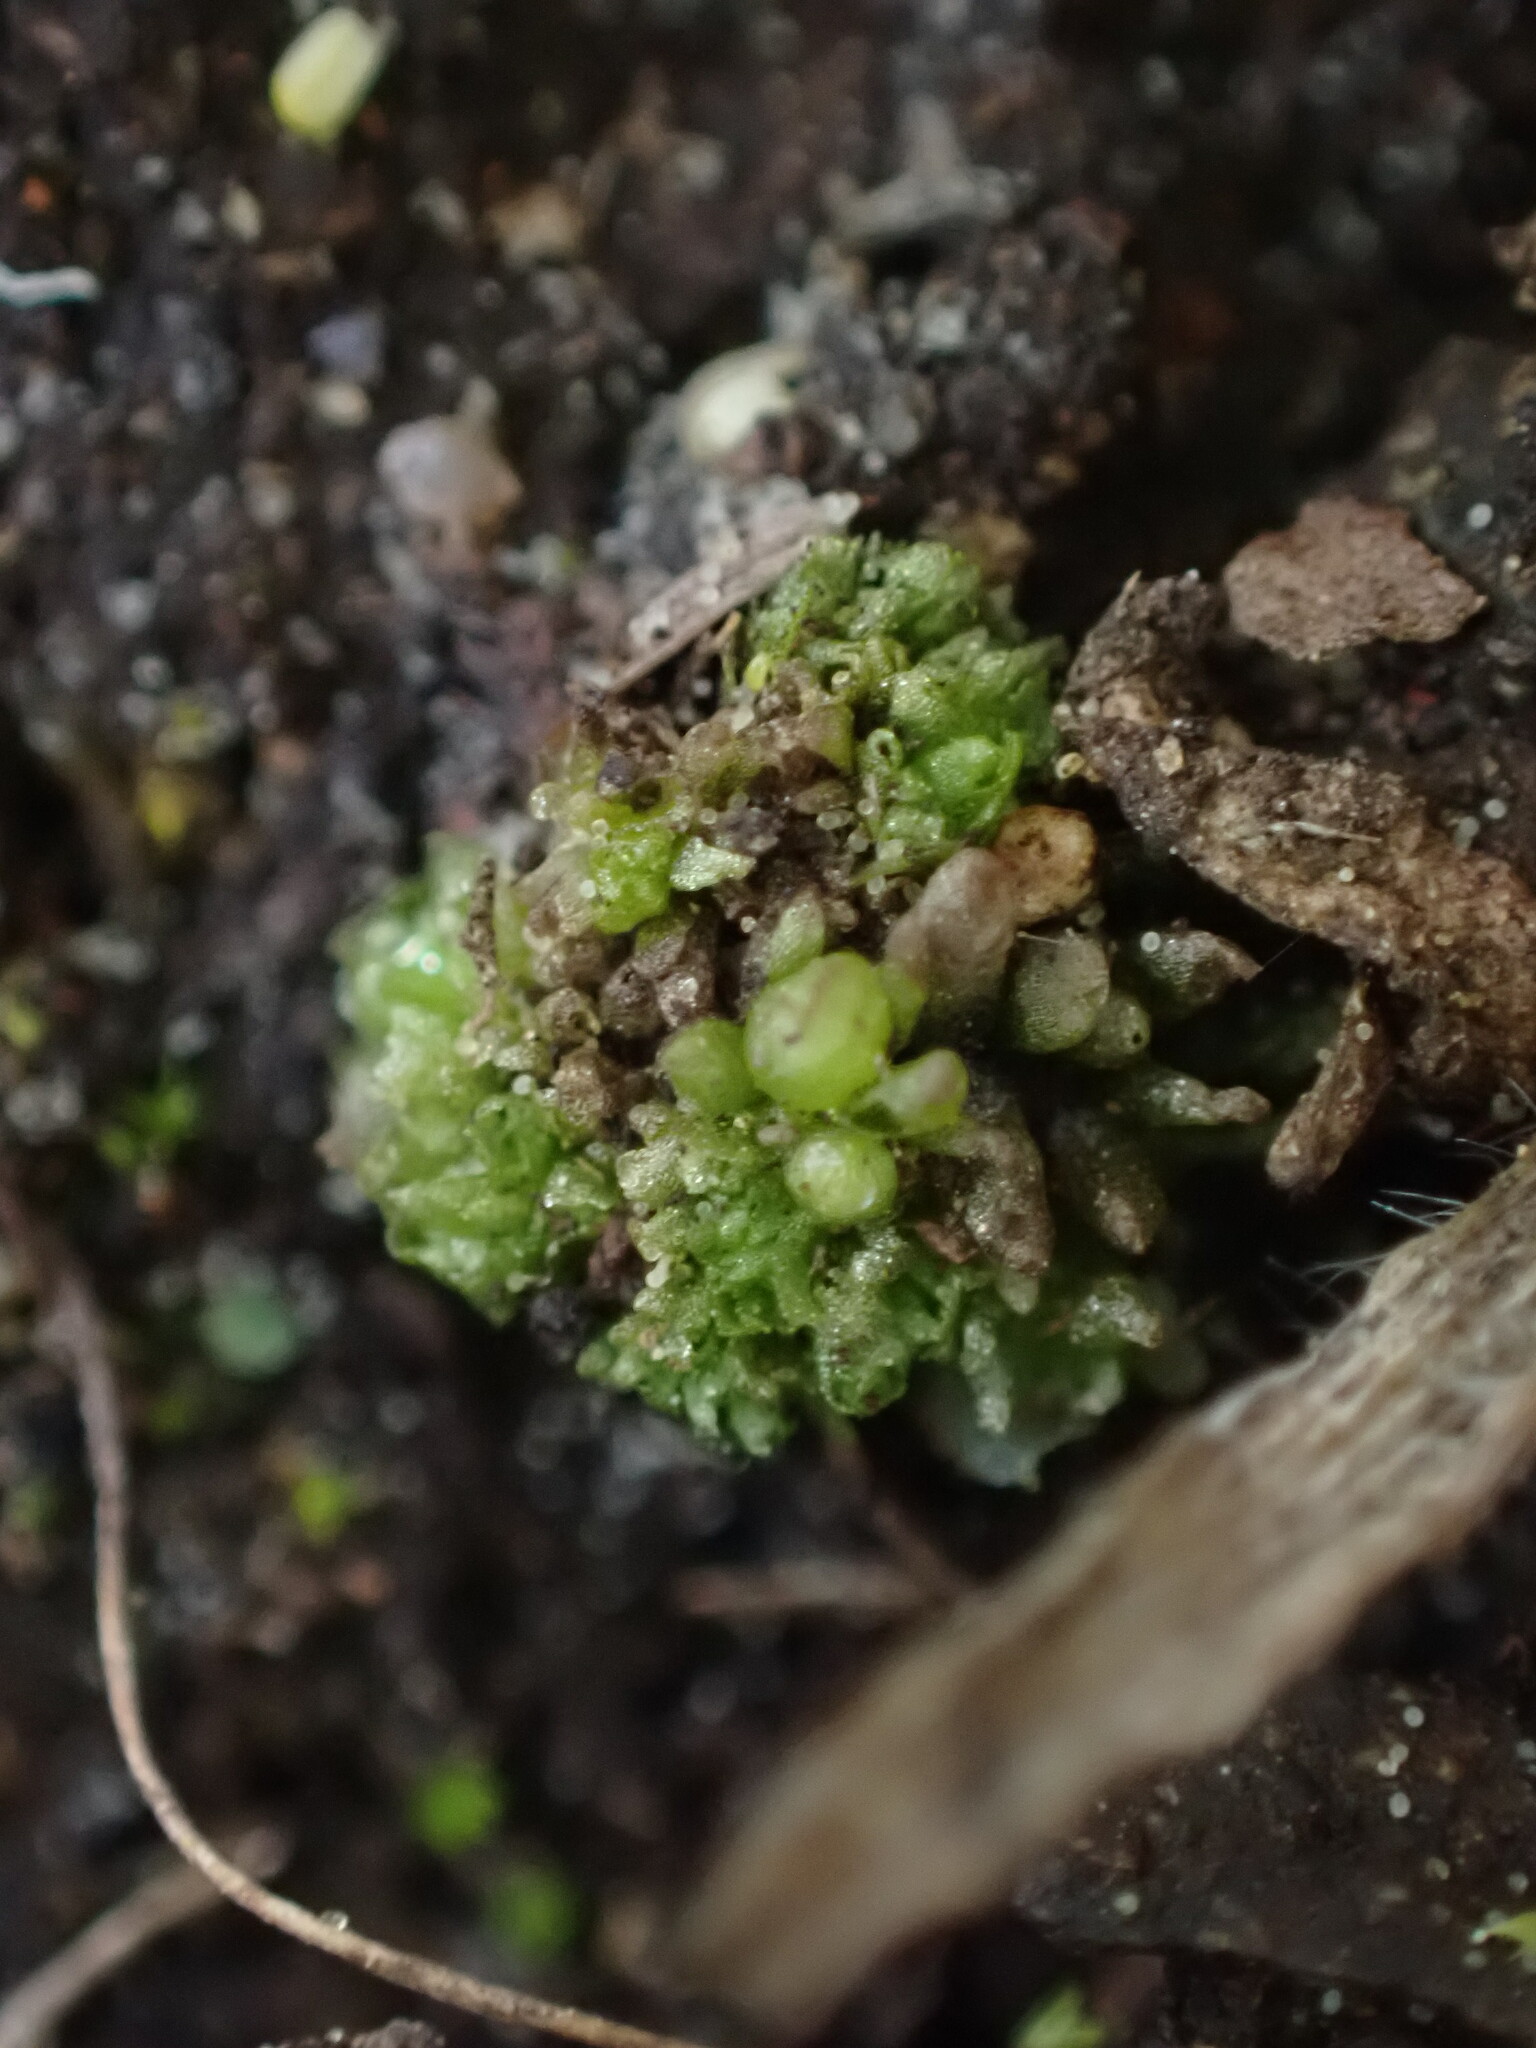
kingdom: Plantae
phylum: Marchantiophyta
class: Marchantiopsida
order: Sphaerocarpales
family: Sphaerocarpaceae
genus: Sphaerocarpos
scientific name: Sphaerocarpos texanus
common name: Texas balloonwort
